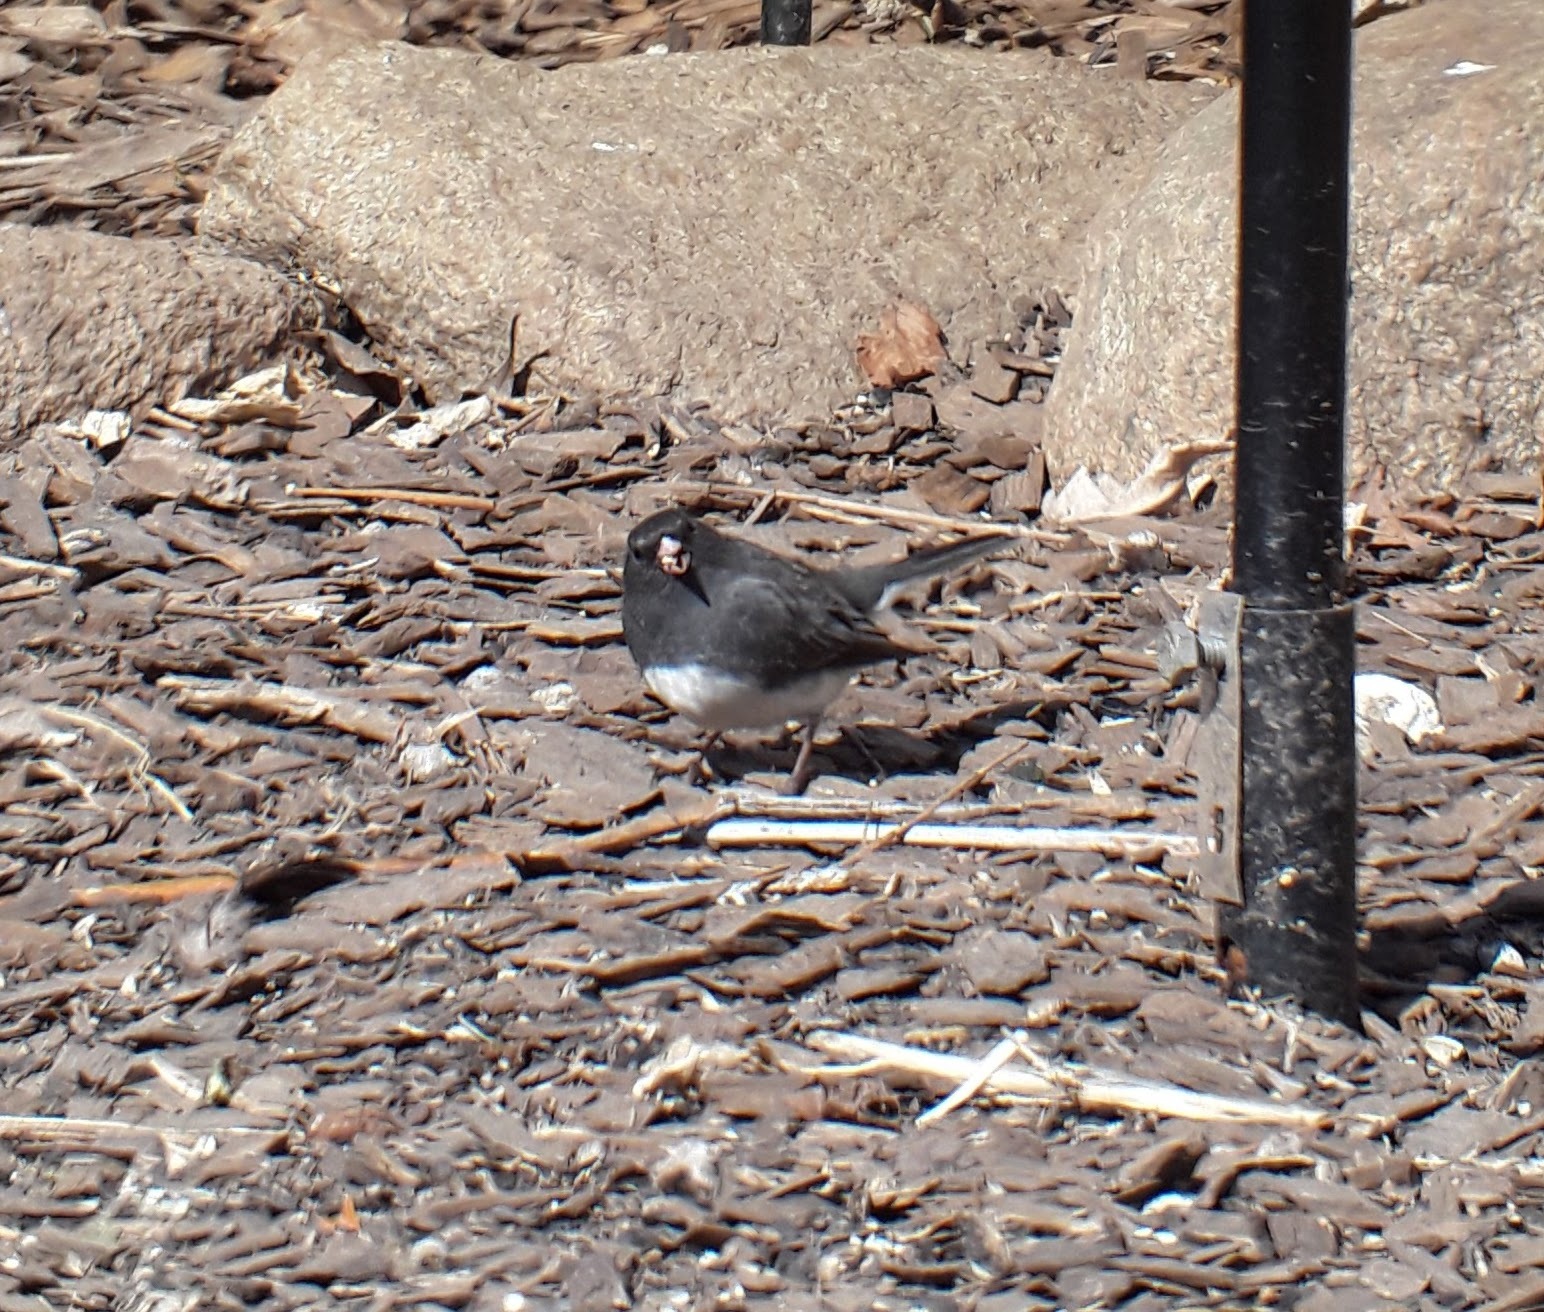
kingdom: Animalia
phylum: Chordata
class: Aves
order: Passeriformes
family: Passerellidae
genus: Junco
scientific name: Junco hyemalis
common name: Dark-eyed junco
